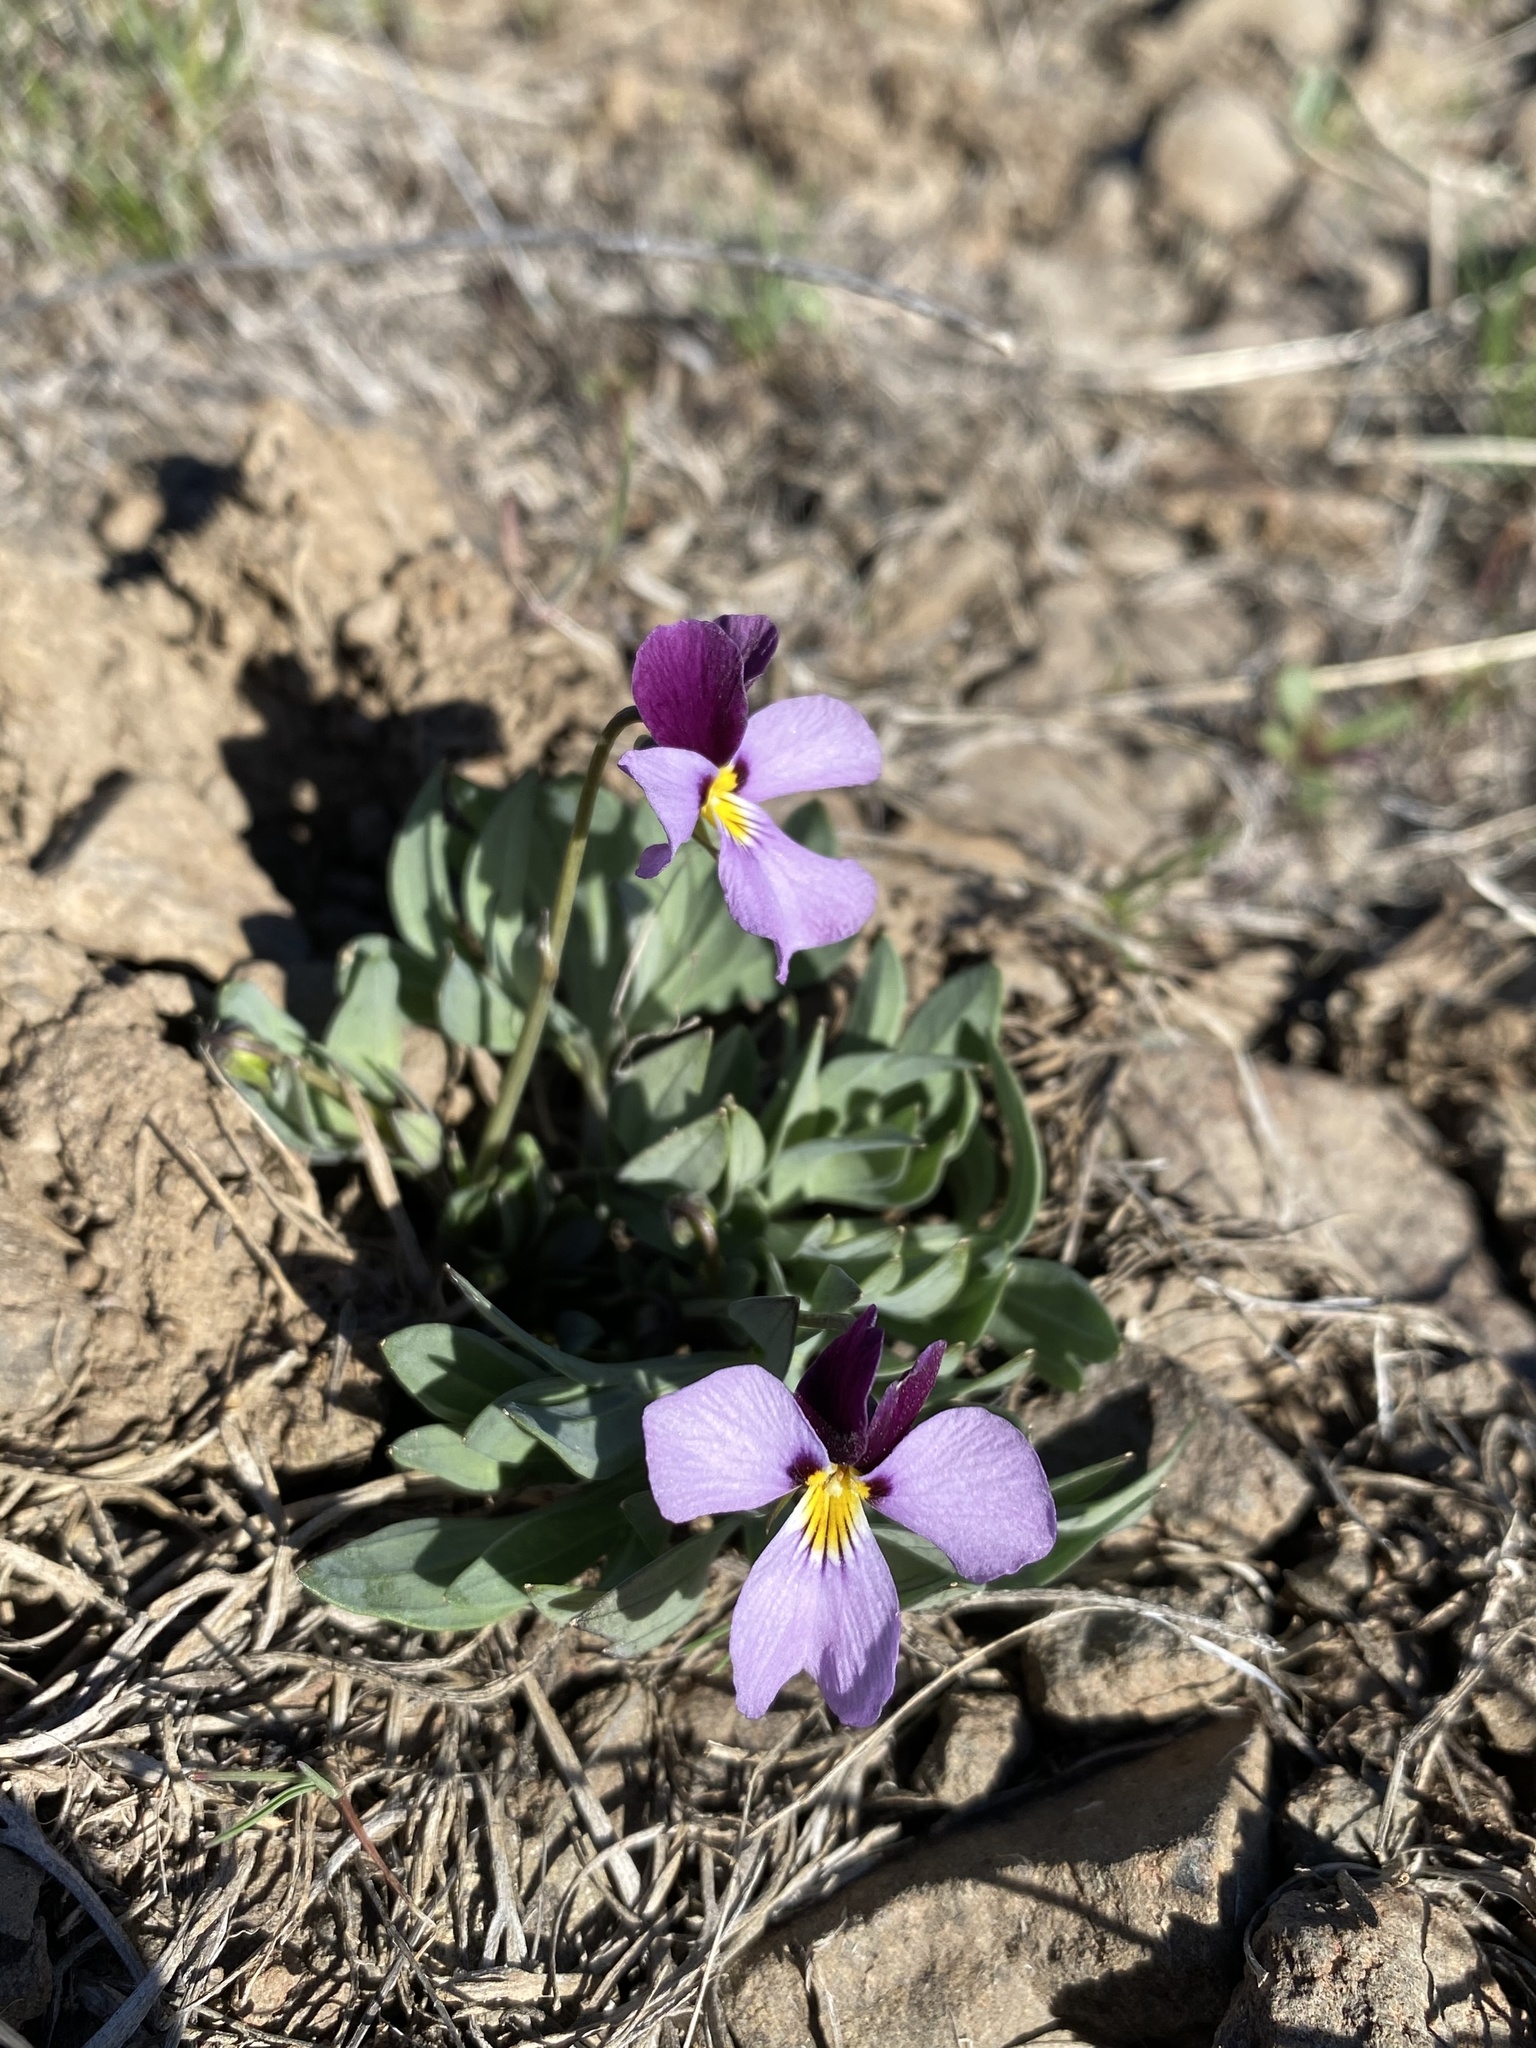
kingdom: Plantae
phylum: Tracheophyta
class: Magnoliopsida
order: Malpighiales
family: Violaceae
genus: Viola
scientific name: Viola trinervata
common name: Sagebrush violet
